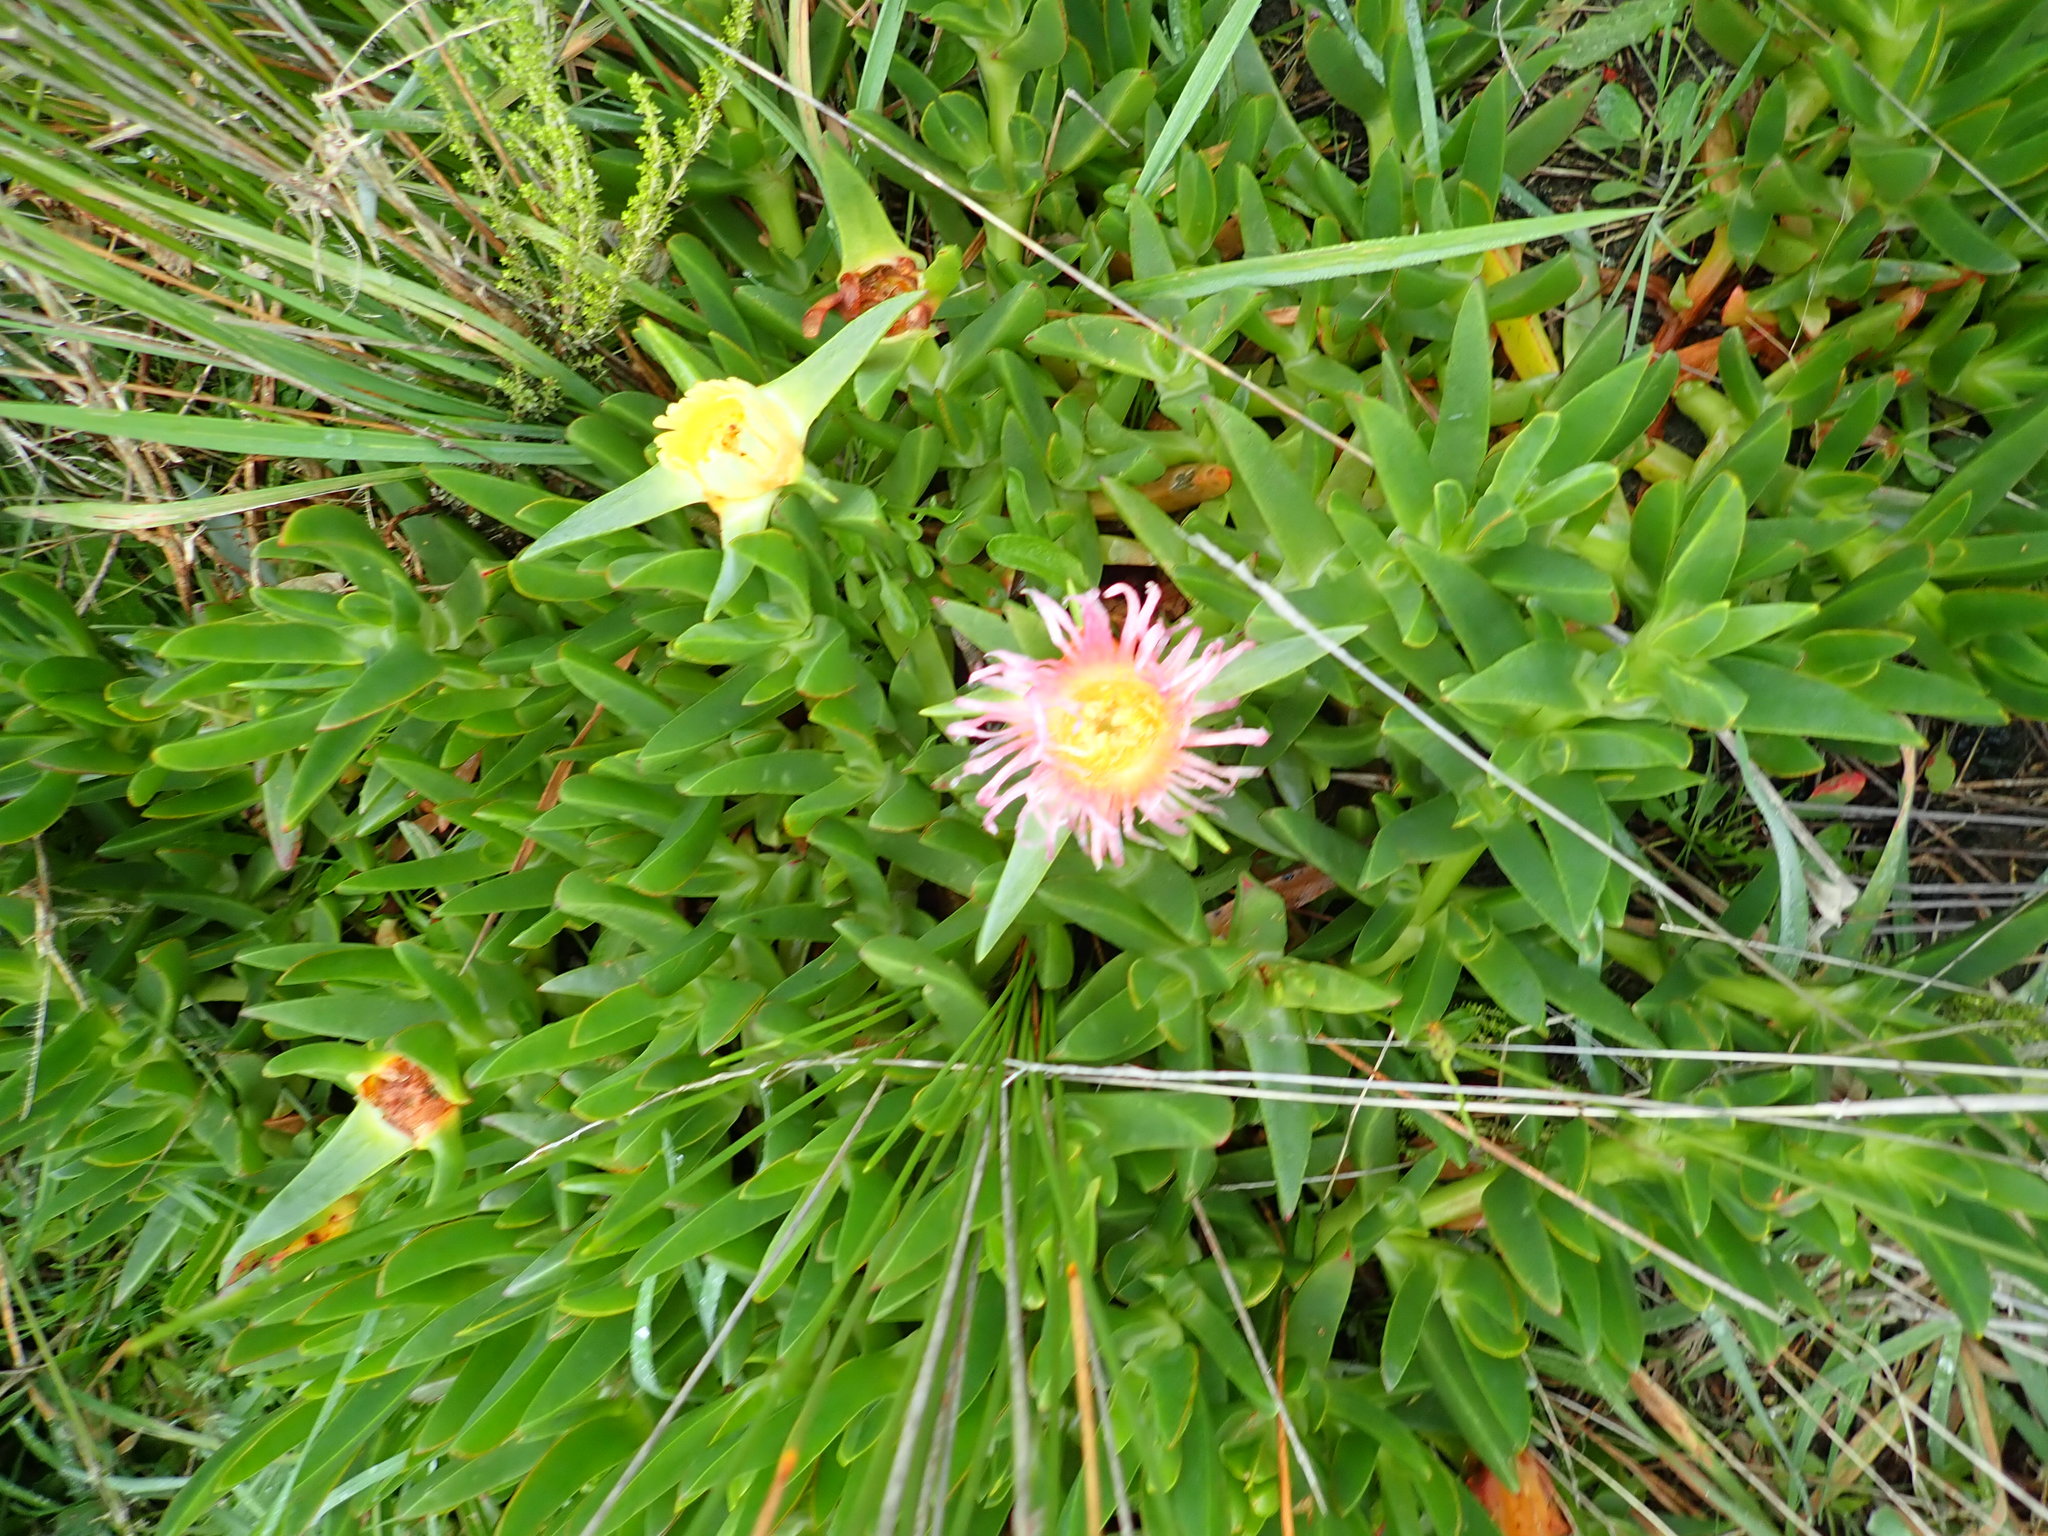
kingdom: Plantae
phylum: Tracheophyta
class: Magnoliopsida
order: Caryophyllales
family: Aizoaceae
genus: Carpobrotus
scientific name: Carpobrotus edulis
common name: Hottentot-fig
